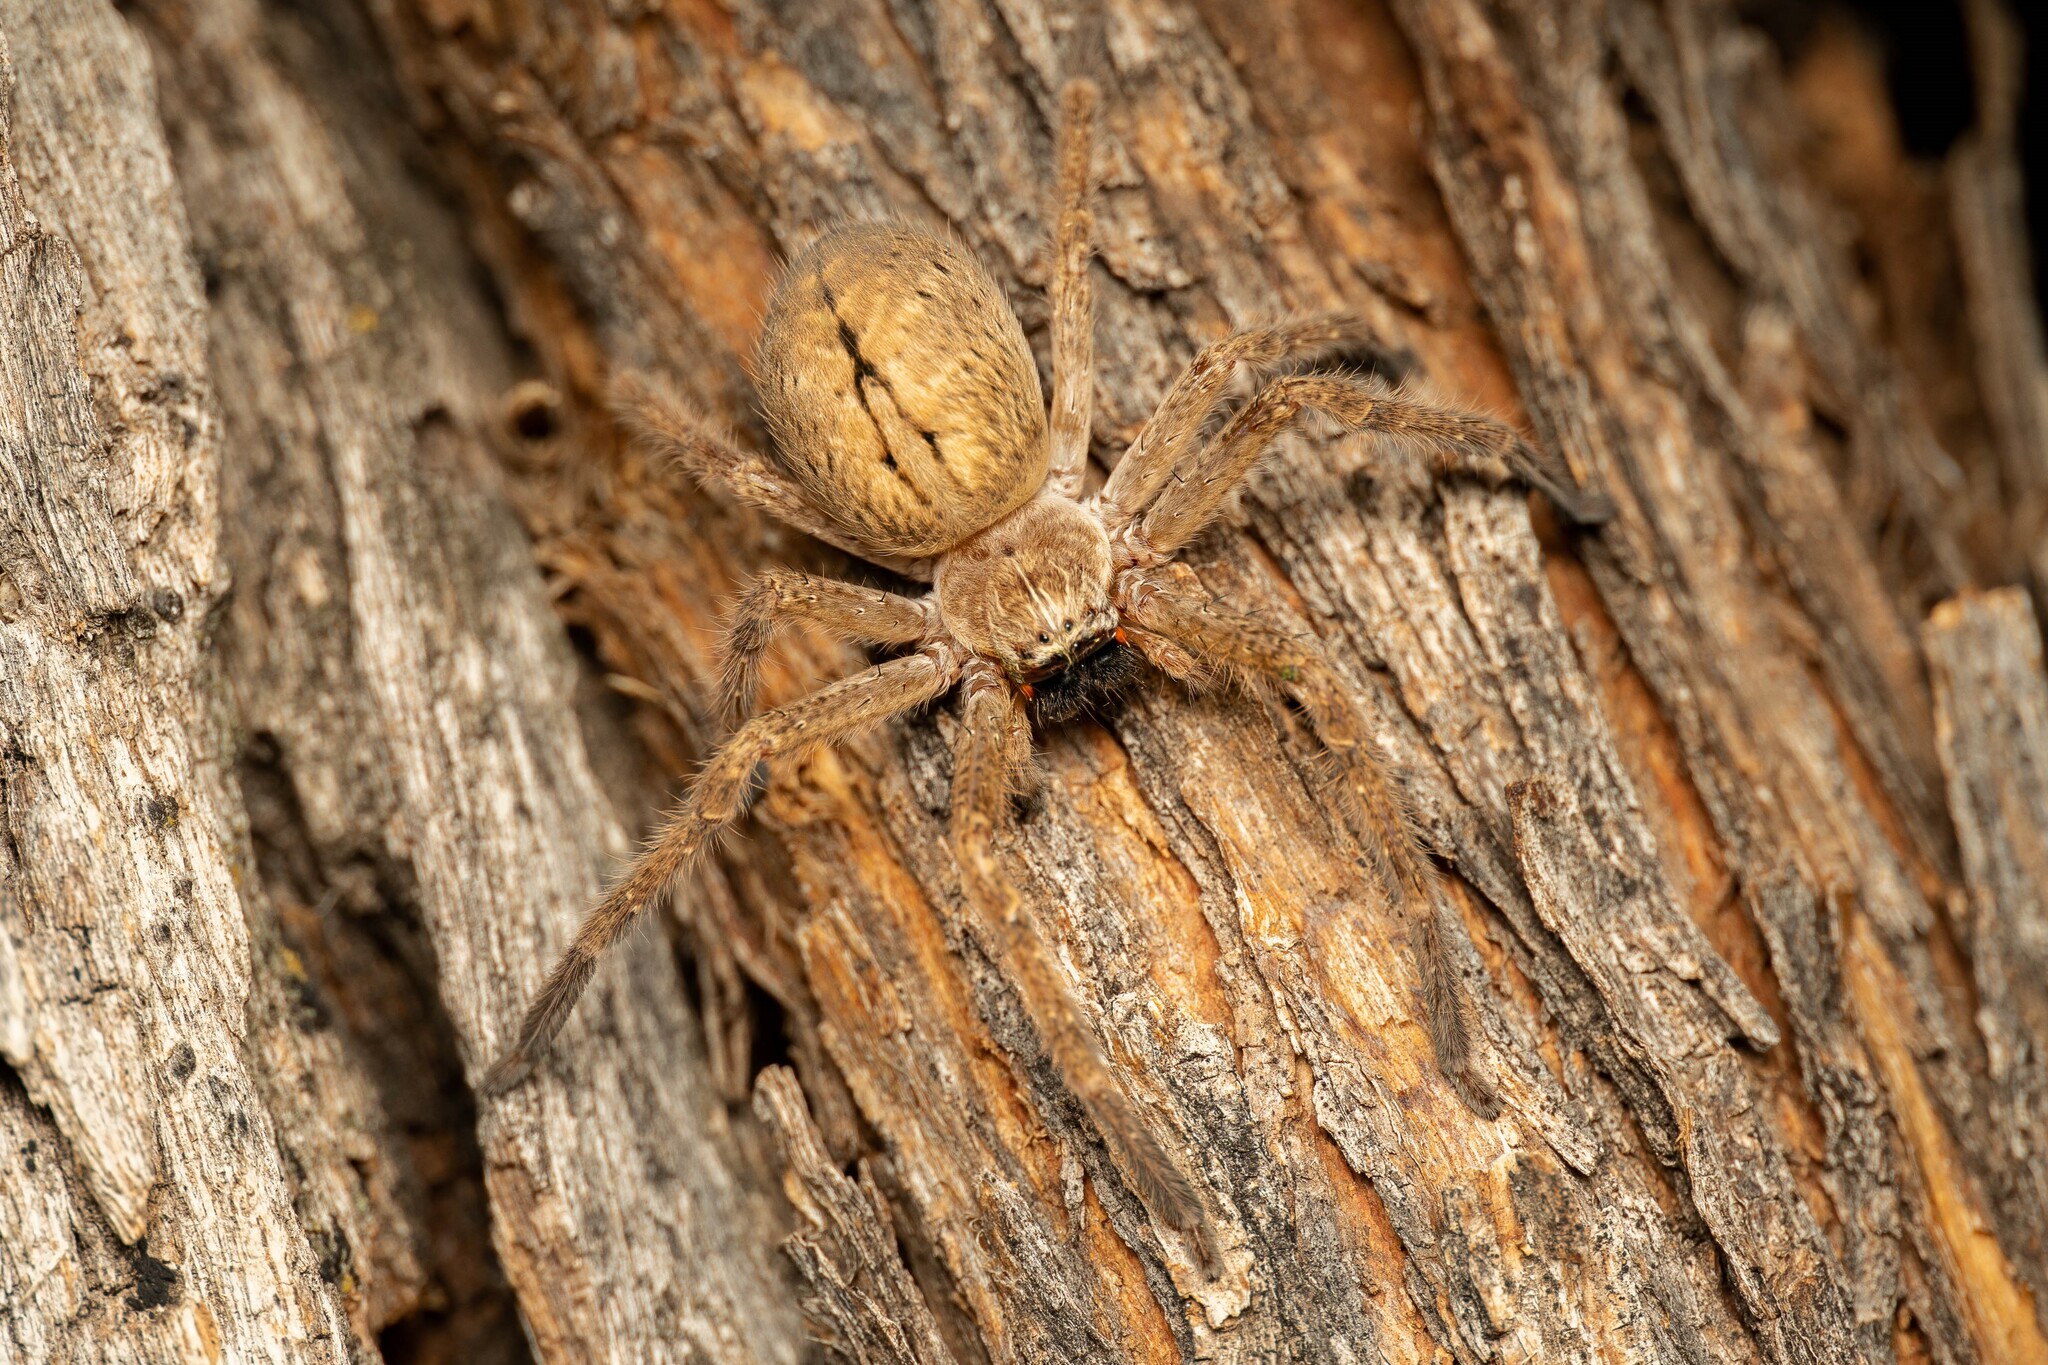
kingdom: Animalia
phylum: Arthropoda
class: Arachnida
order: Araneae
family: Sparassidae
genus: Olios
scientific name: Olios giganteus
